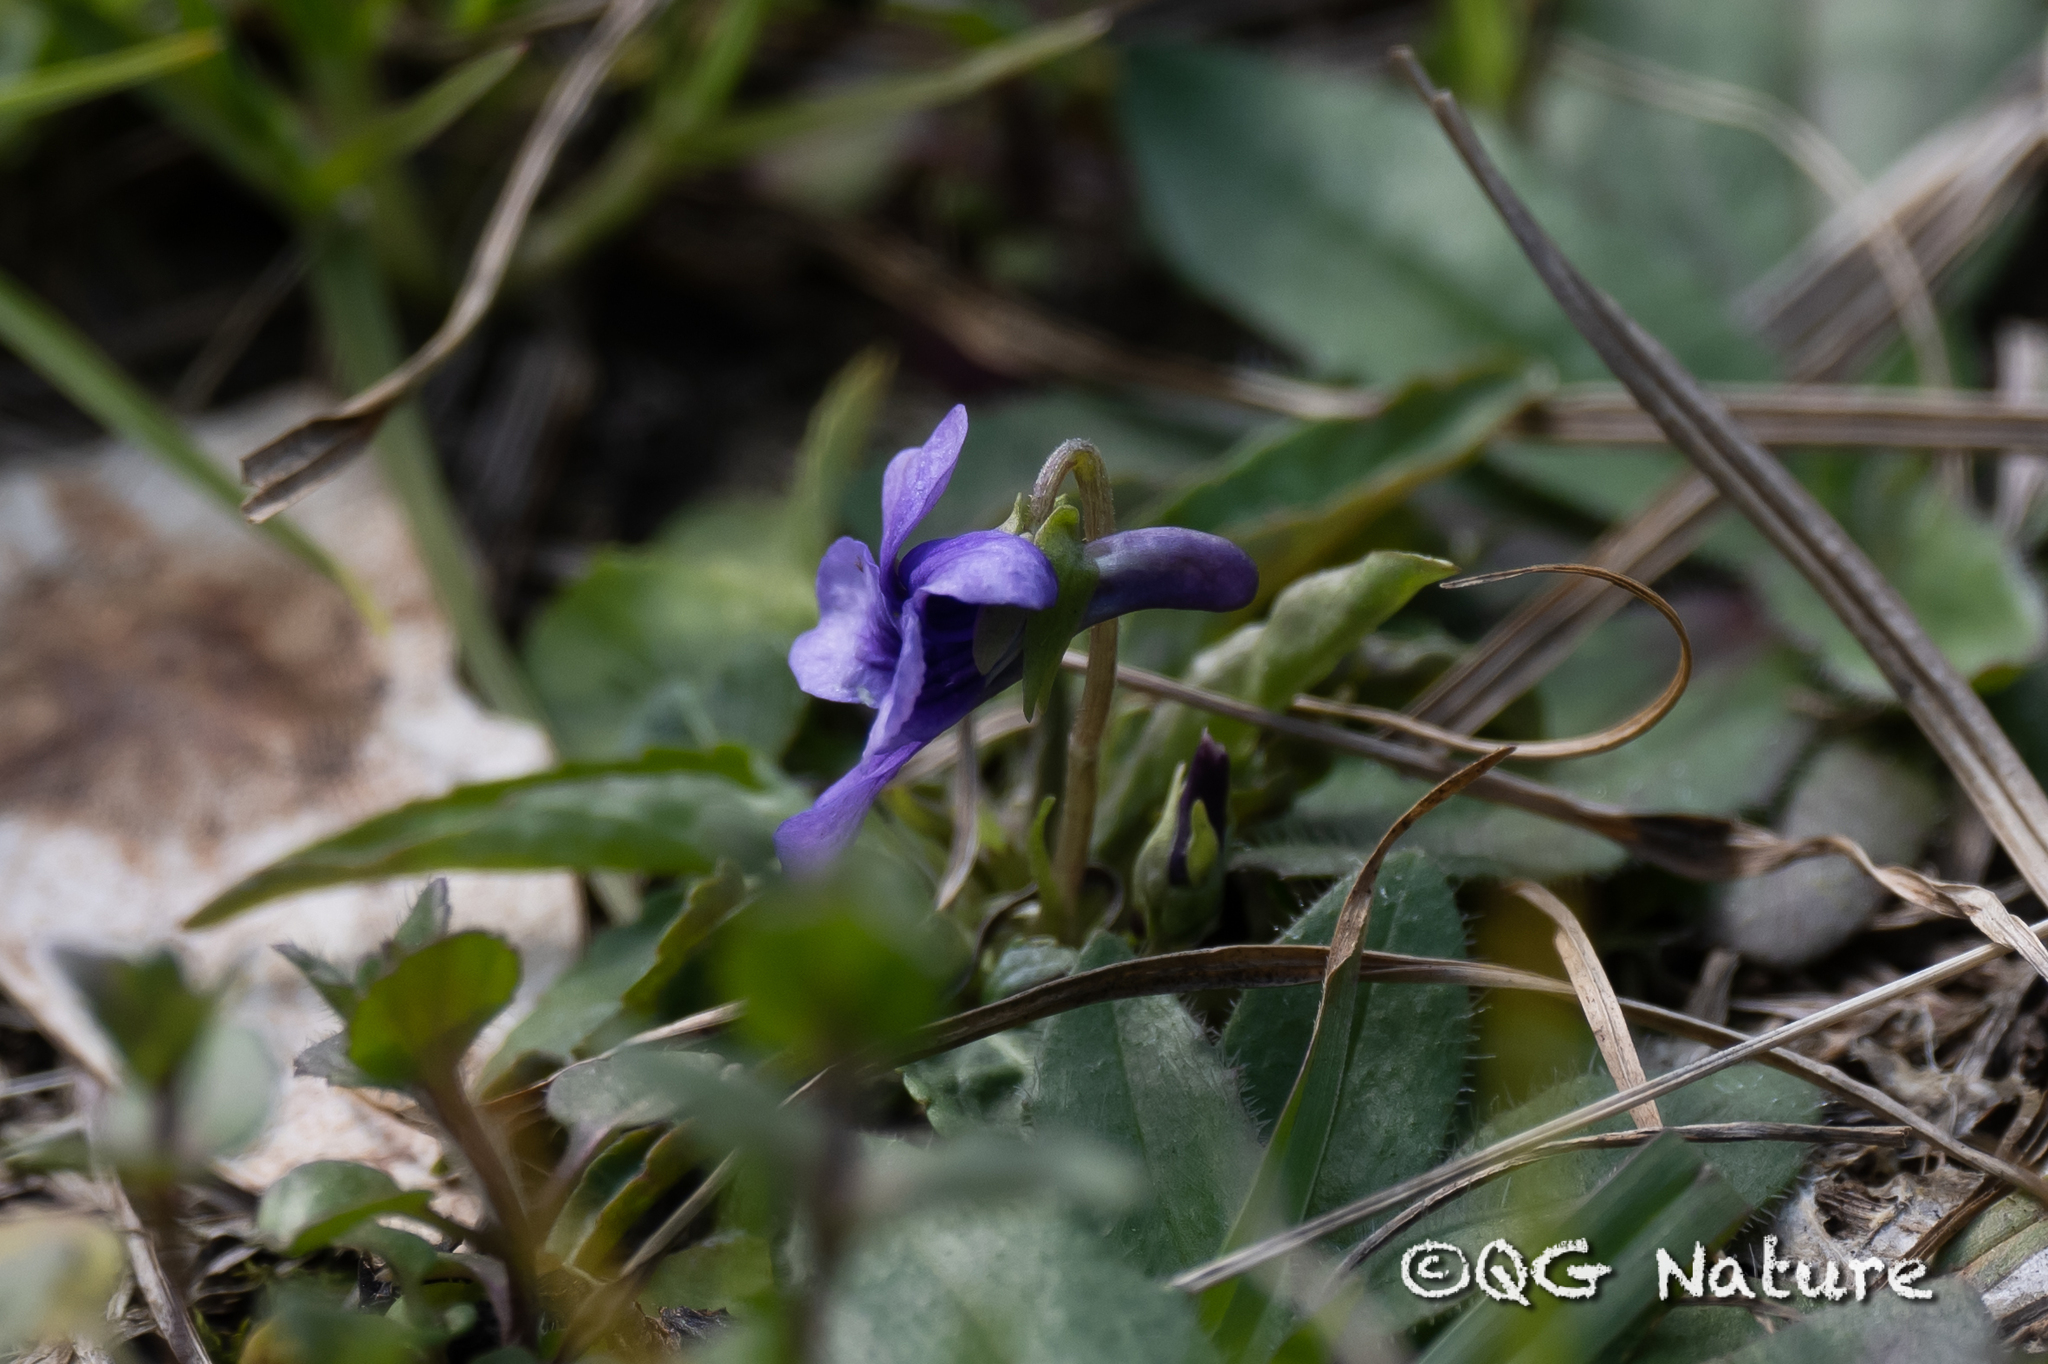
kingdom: Plantae
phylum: Tracheophyta
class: Magnoliopsida
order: Malpighiales
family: Violaceae
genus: Viola
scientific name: Viola philippica
